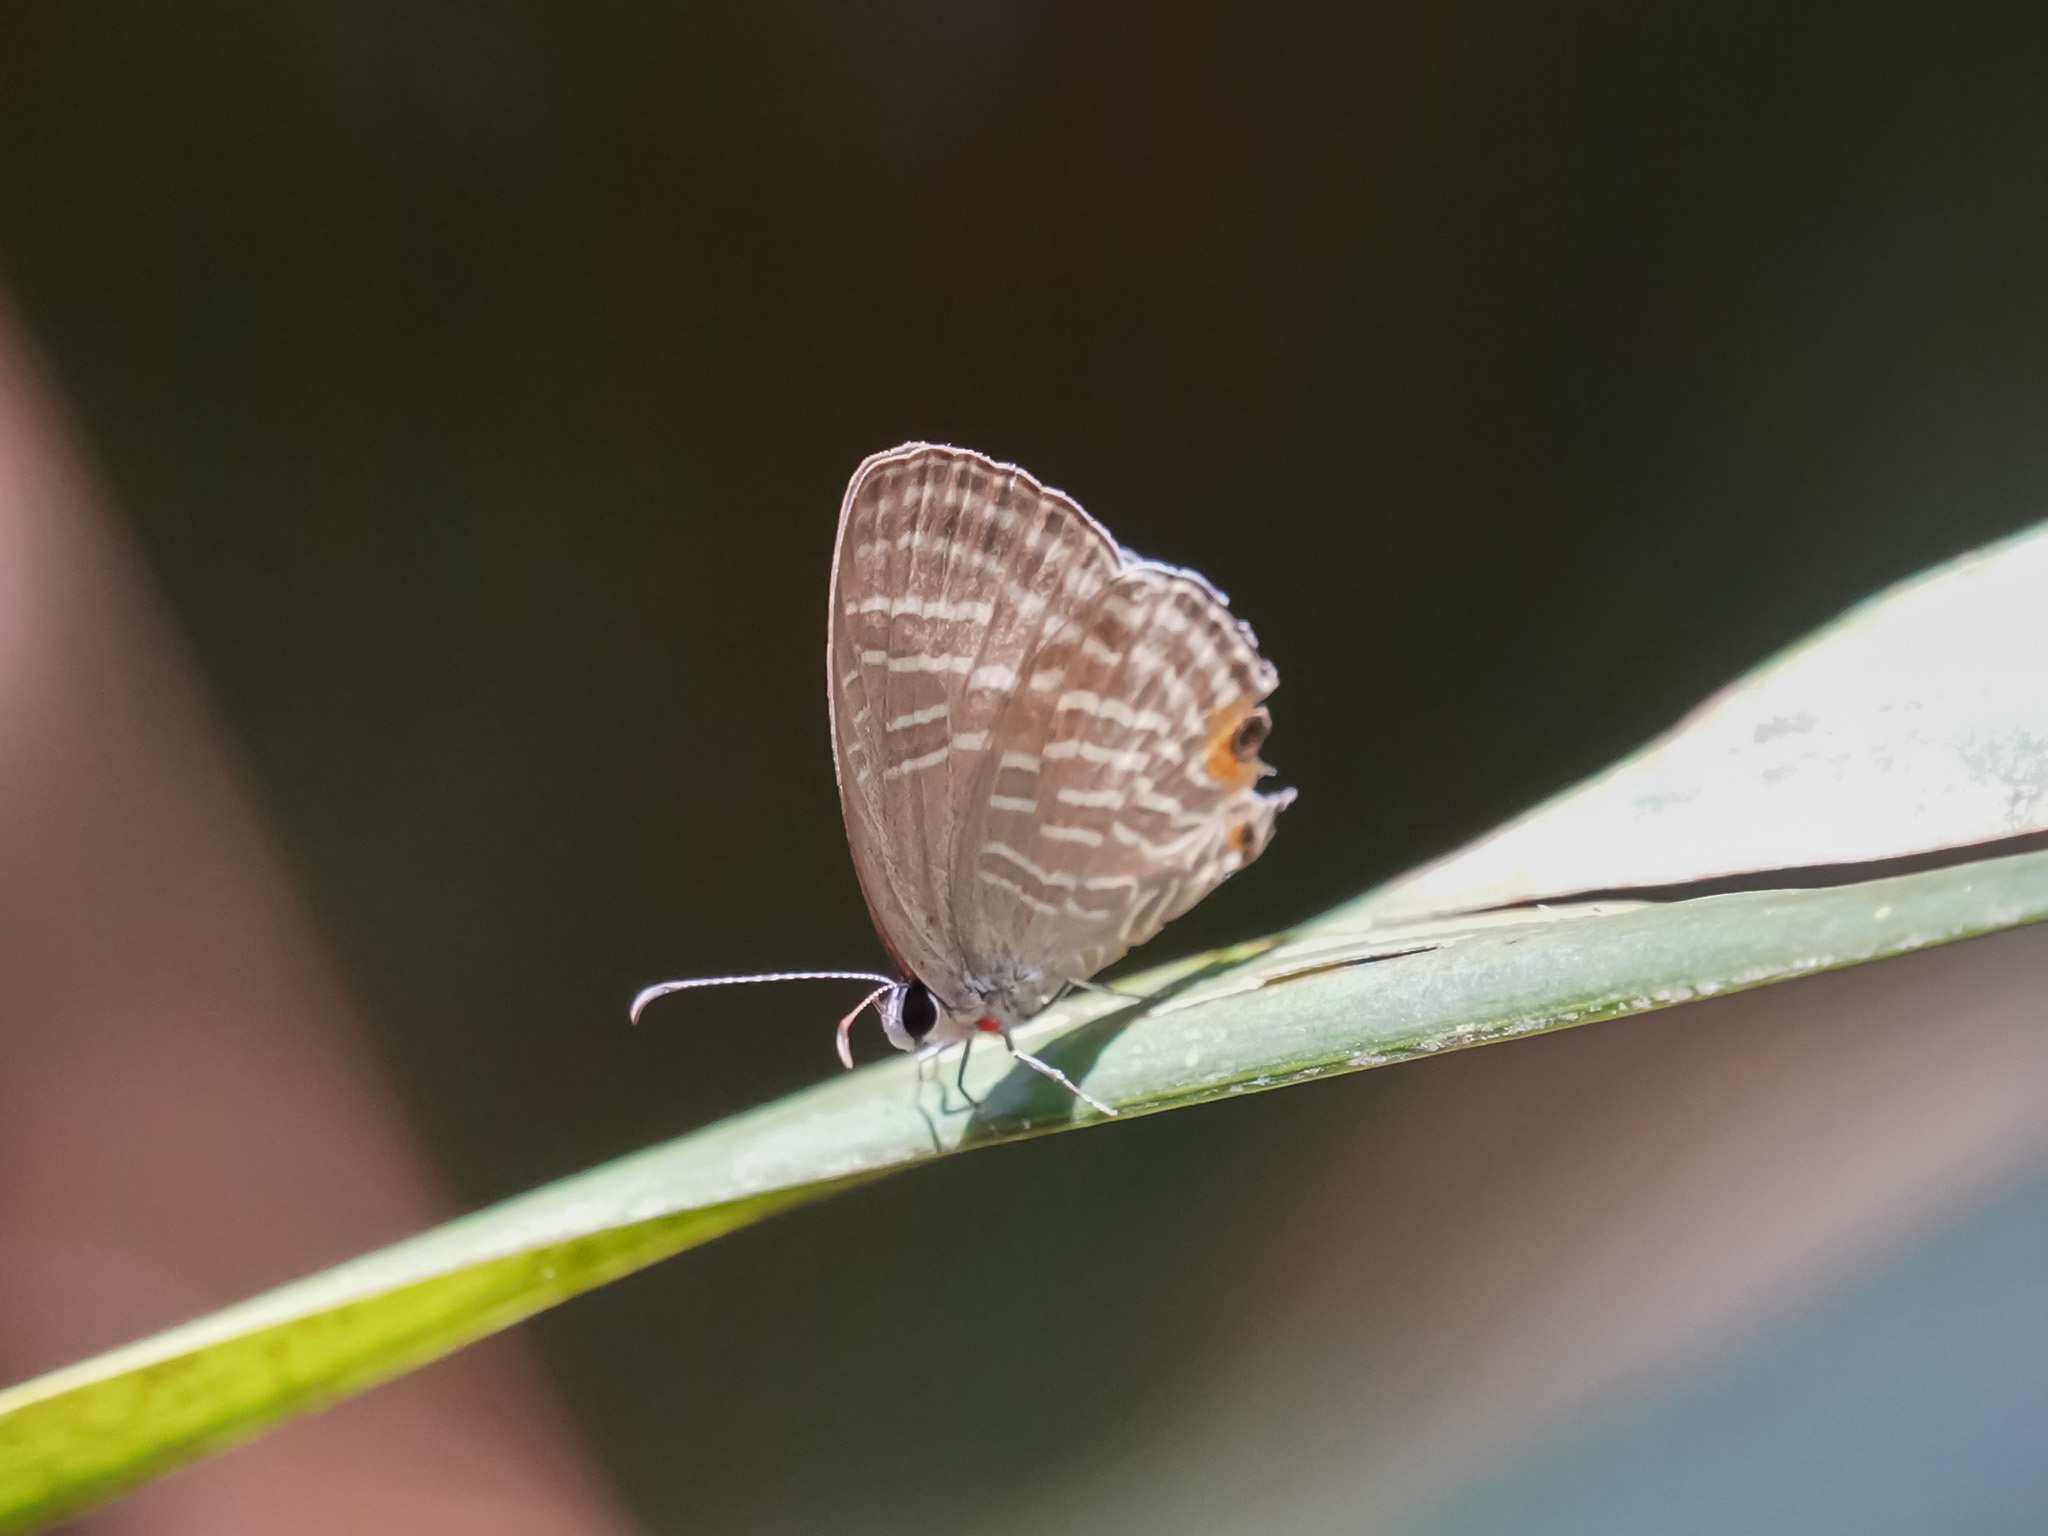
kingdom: Animalia
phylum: Arthropoda
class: Insecta
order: Lepidoptera
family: Lycaenidae
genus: Jamides
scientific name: Jamides celeno
